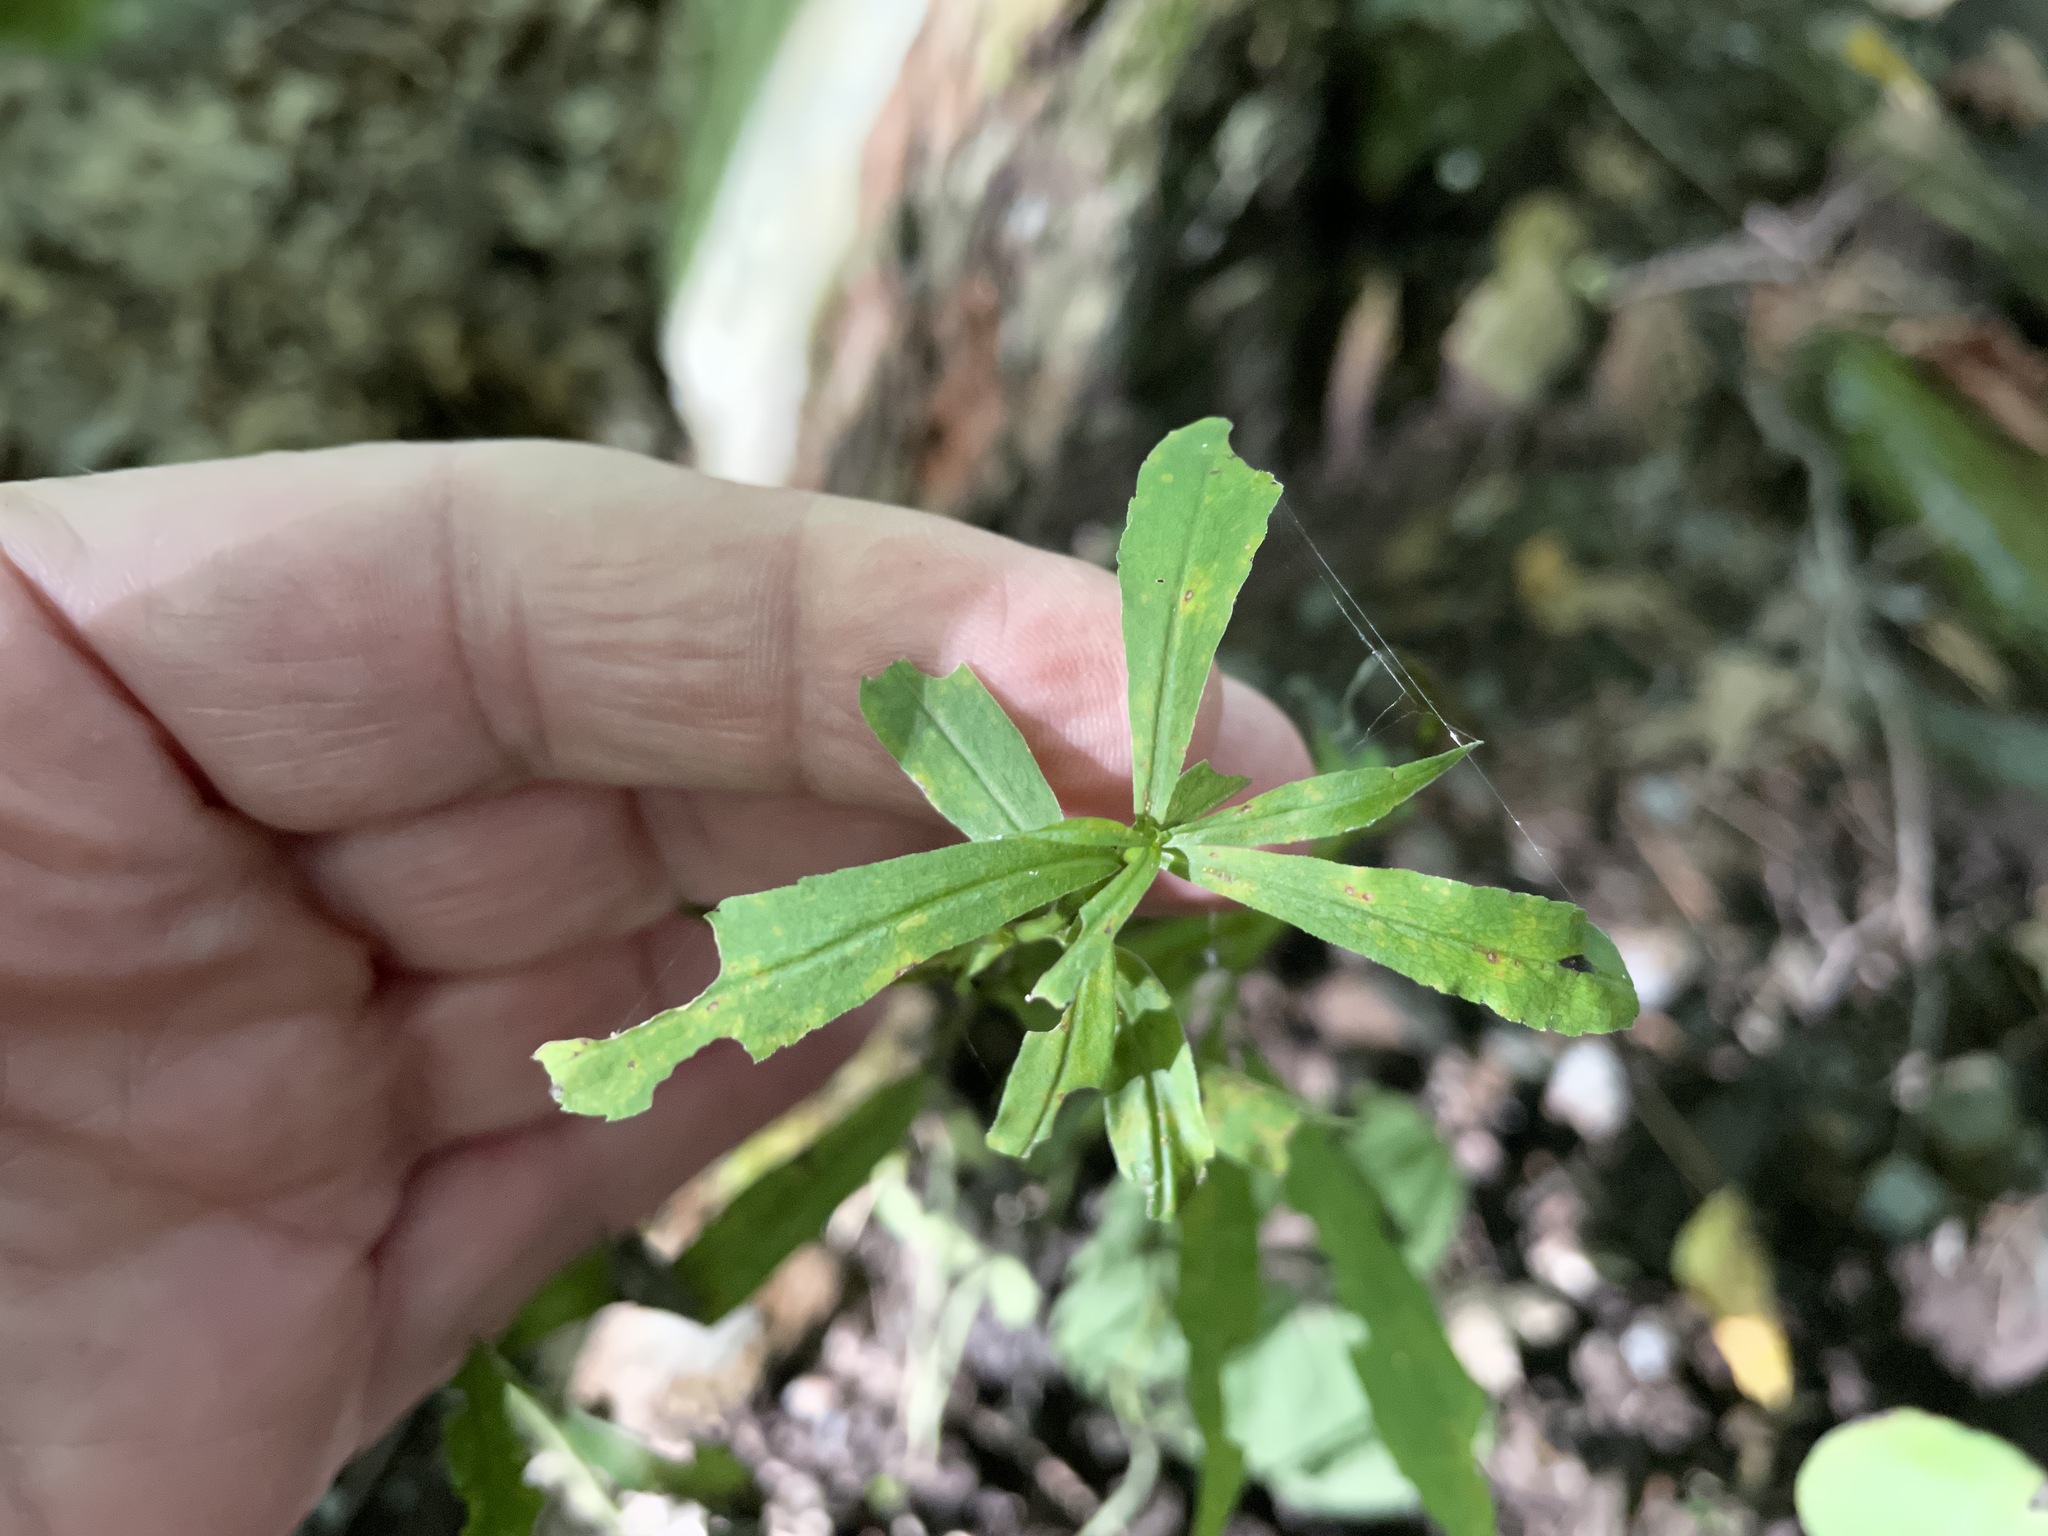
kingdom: Plantae
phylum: Tracheophyta
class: Magnoliopsida
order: Asterales
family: Asteraceae
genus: Solidago
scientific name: Solidago caesia
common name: Woodland goldenrod
